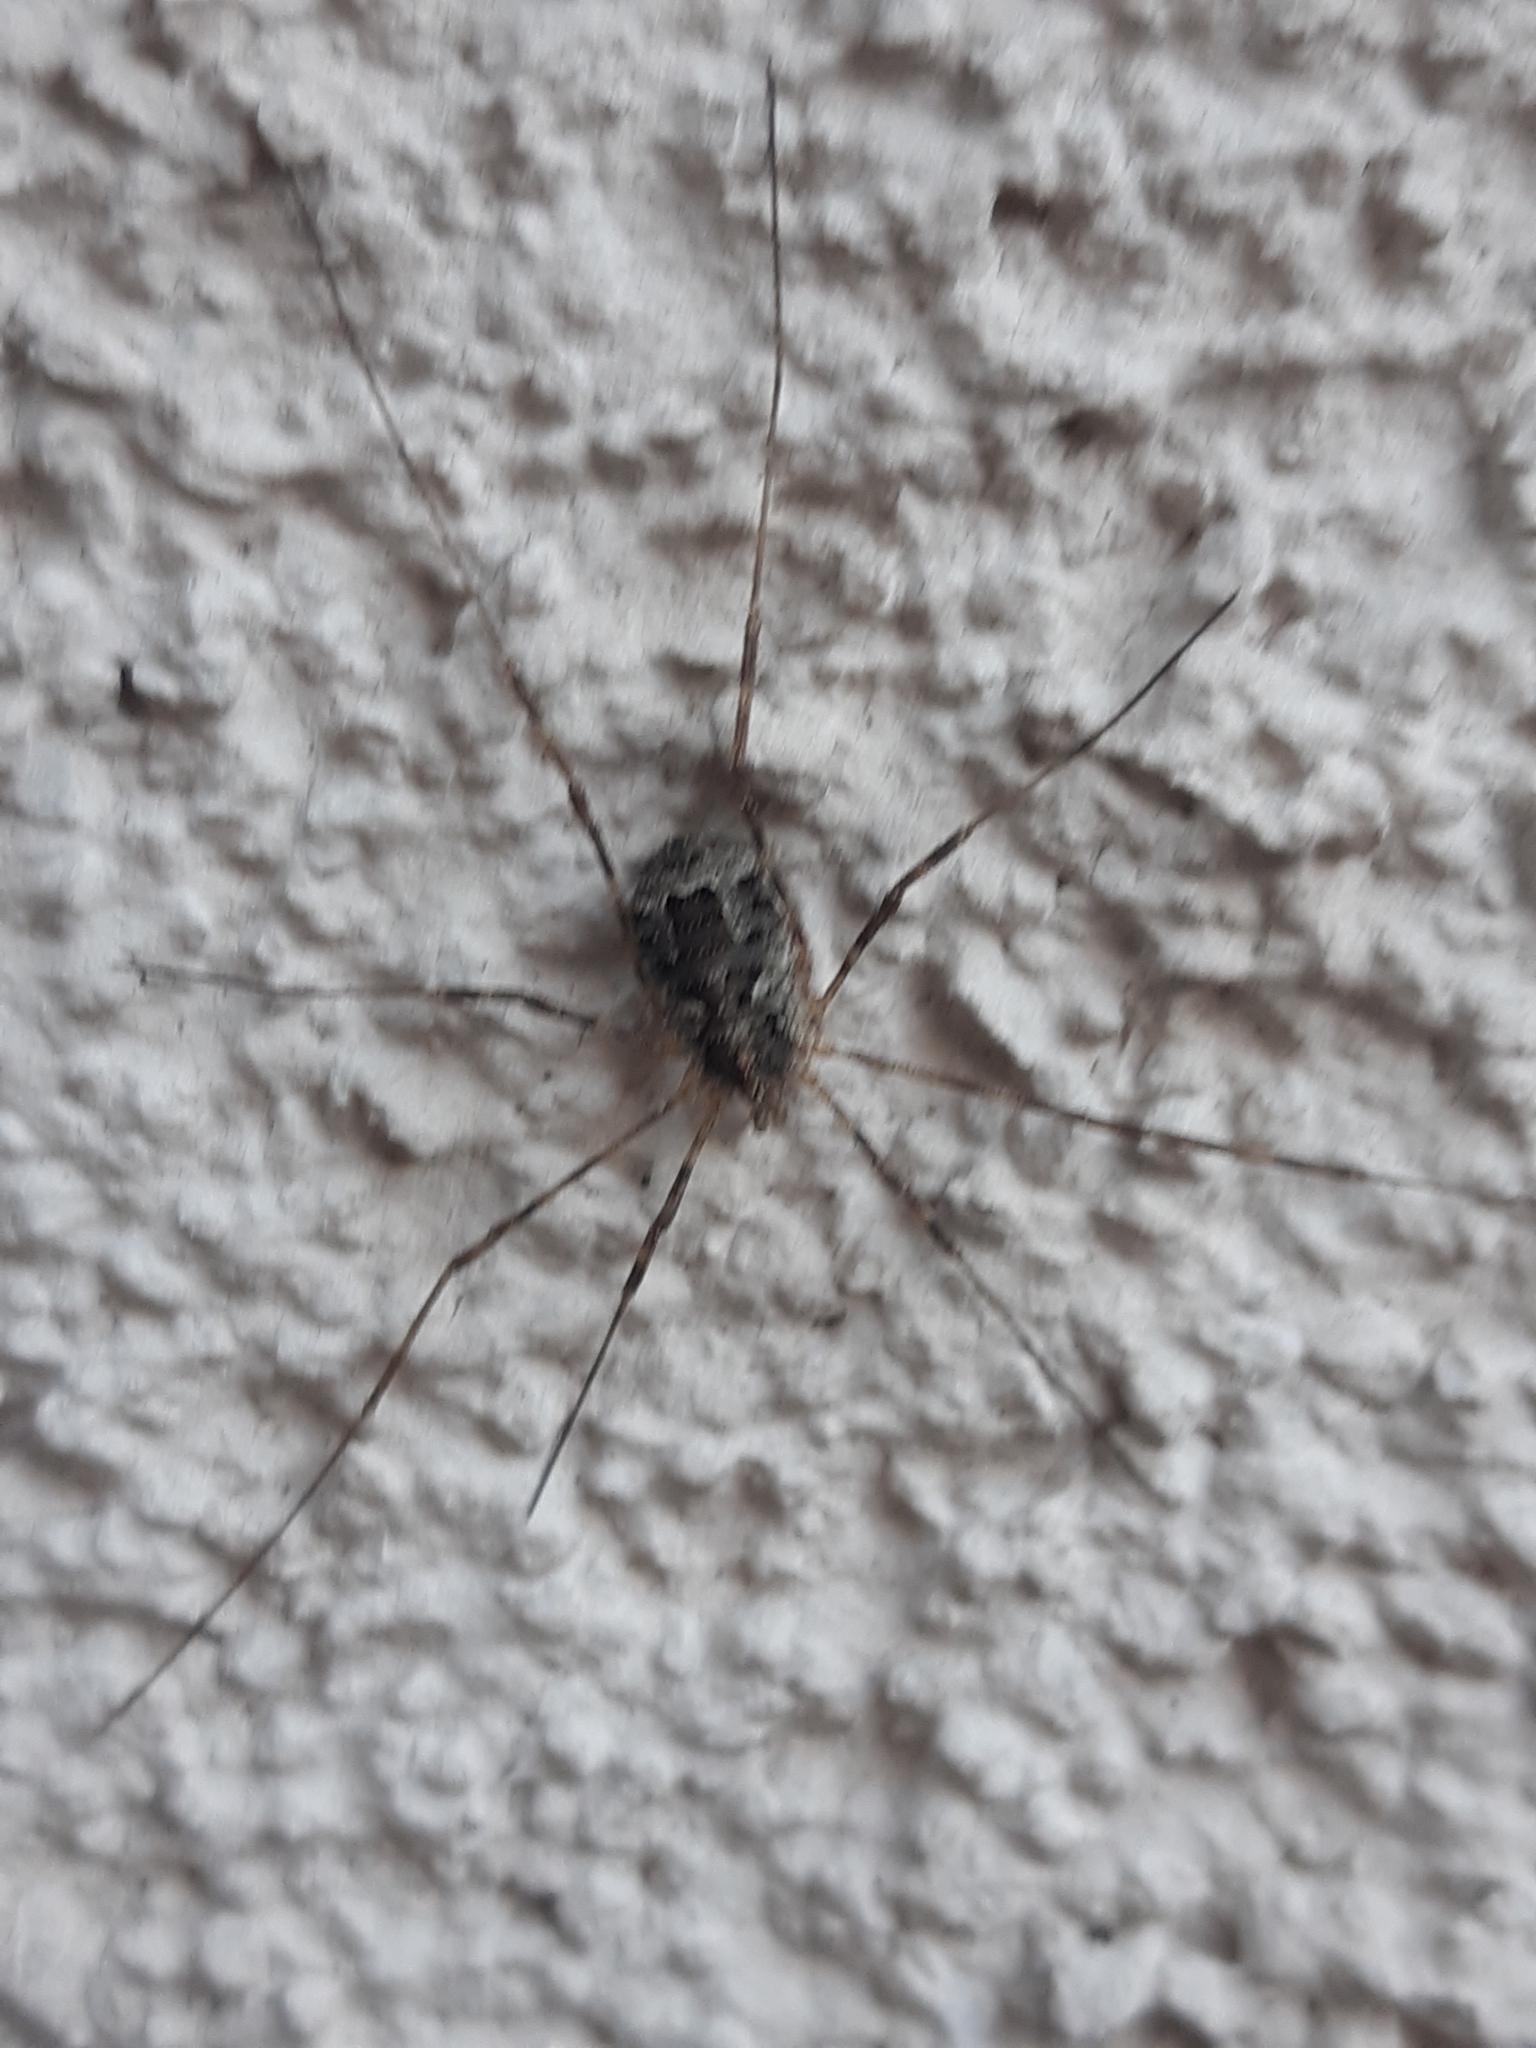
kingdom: Animalia
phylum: Arthropoda
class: Arachnida
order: Opiliones
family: Phalangiidae
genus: Lacinius
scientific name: Lacinius dentiger
